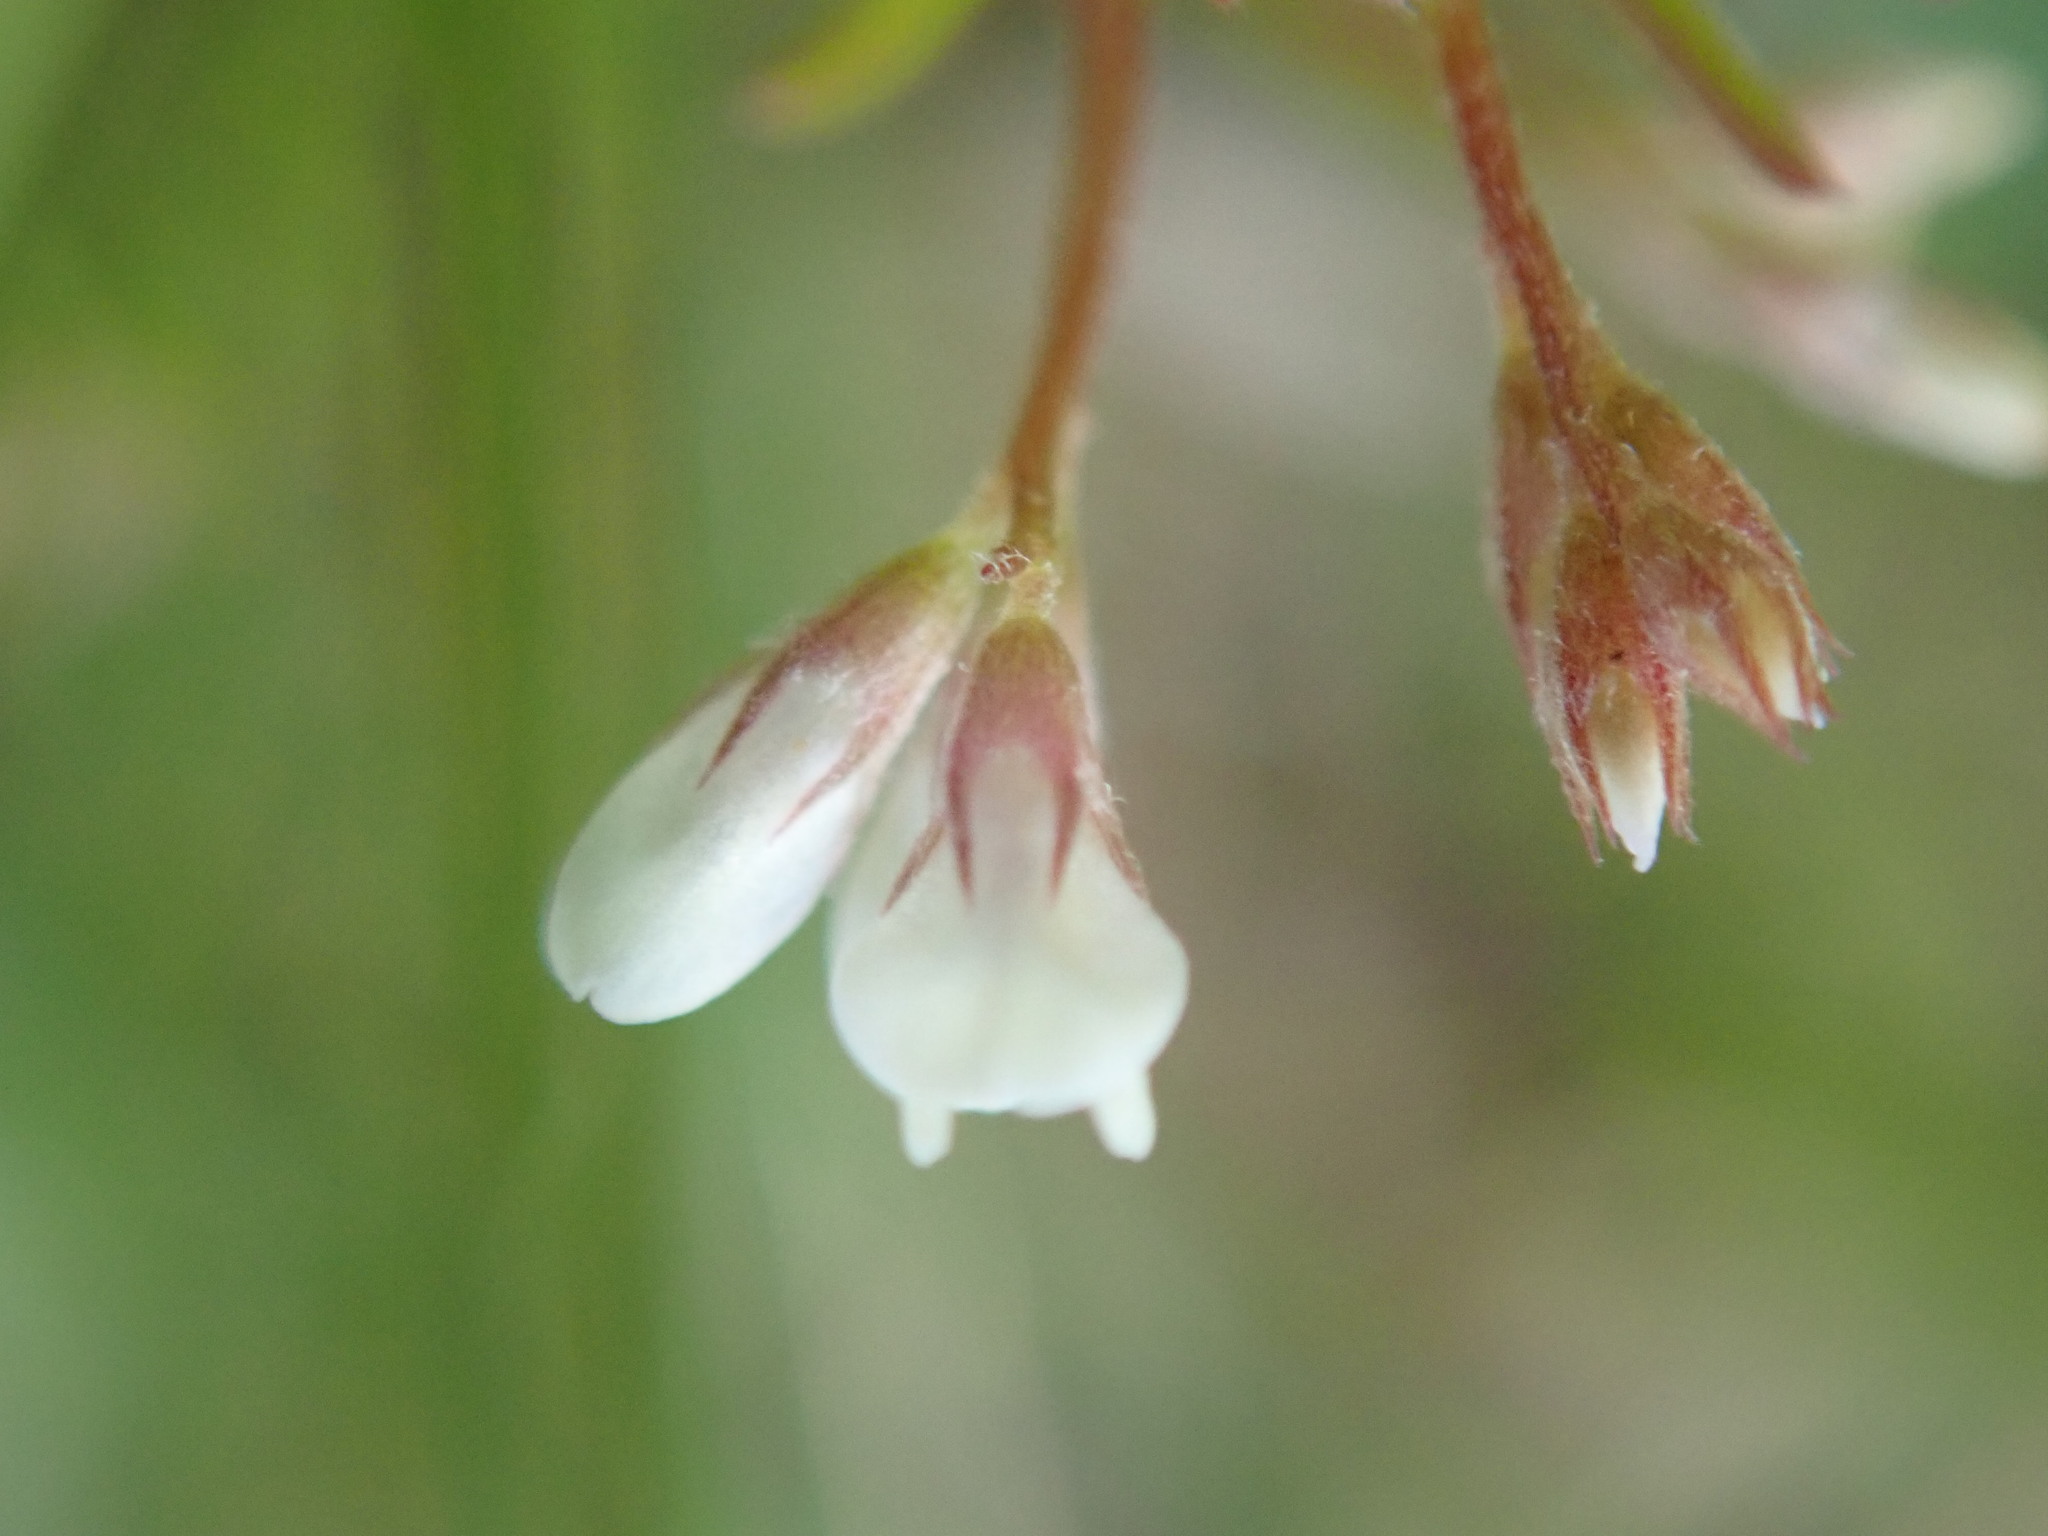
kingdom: Plantae
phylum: Tracheophyta
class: Magnoliopsida
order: Fabales
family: Fabaceae
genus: Vicia
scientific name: Vicia hirsuta
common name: Tiny vetch
